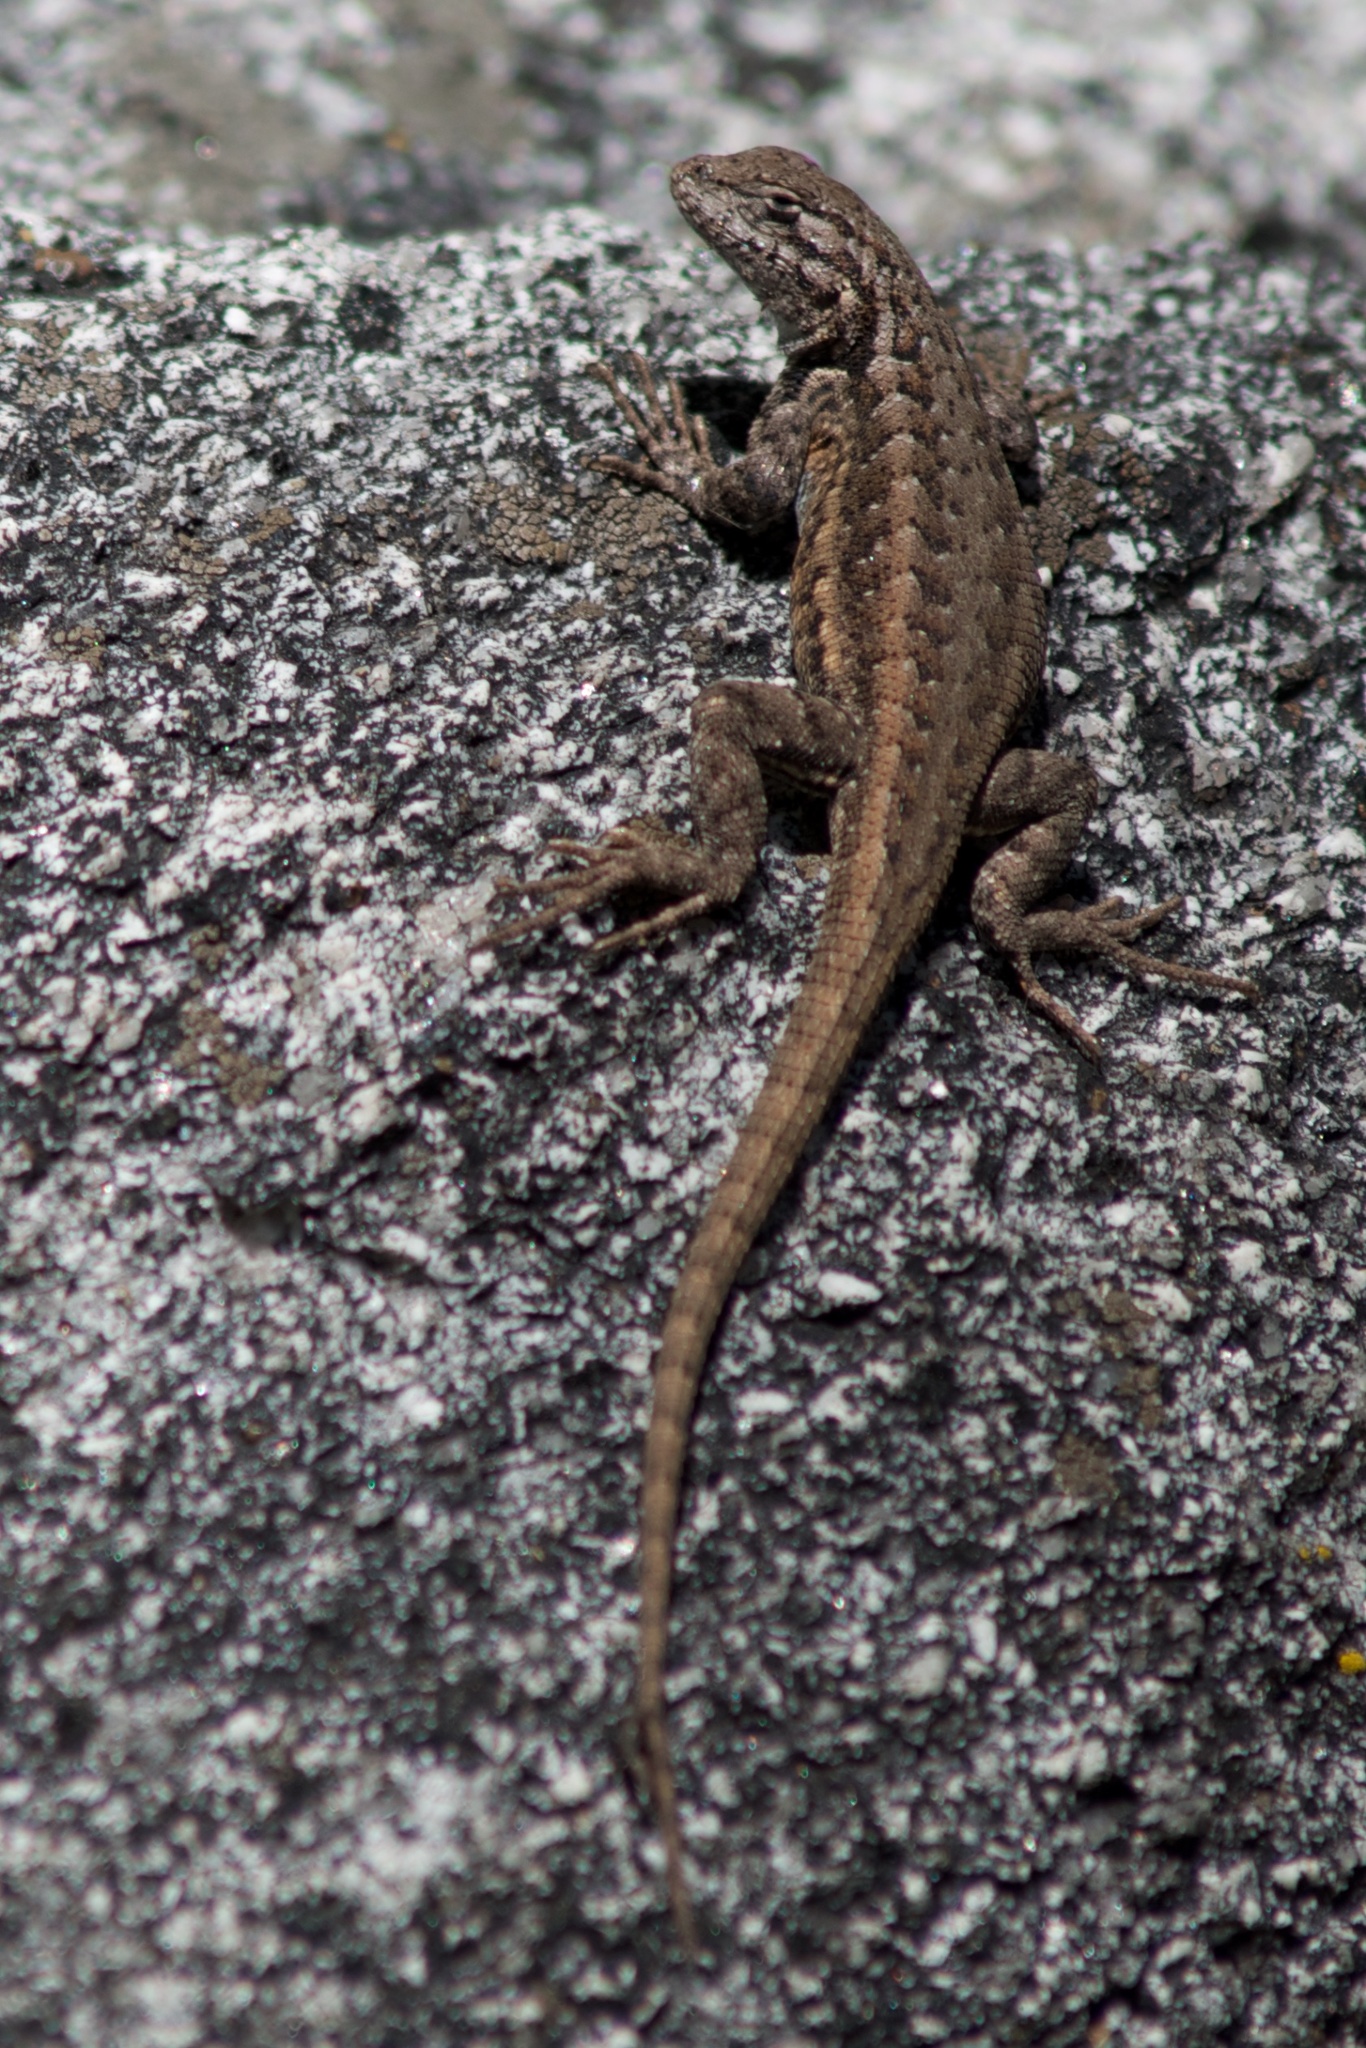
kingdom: Animalia
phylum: Chordata
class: Squamata
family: Phrynosomatidae
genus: Sceloporus
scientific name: Sceloporus graciosus
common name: Sagebrush lizard
